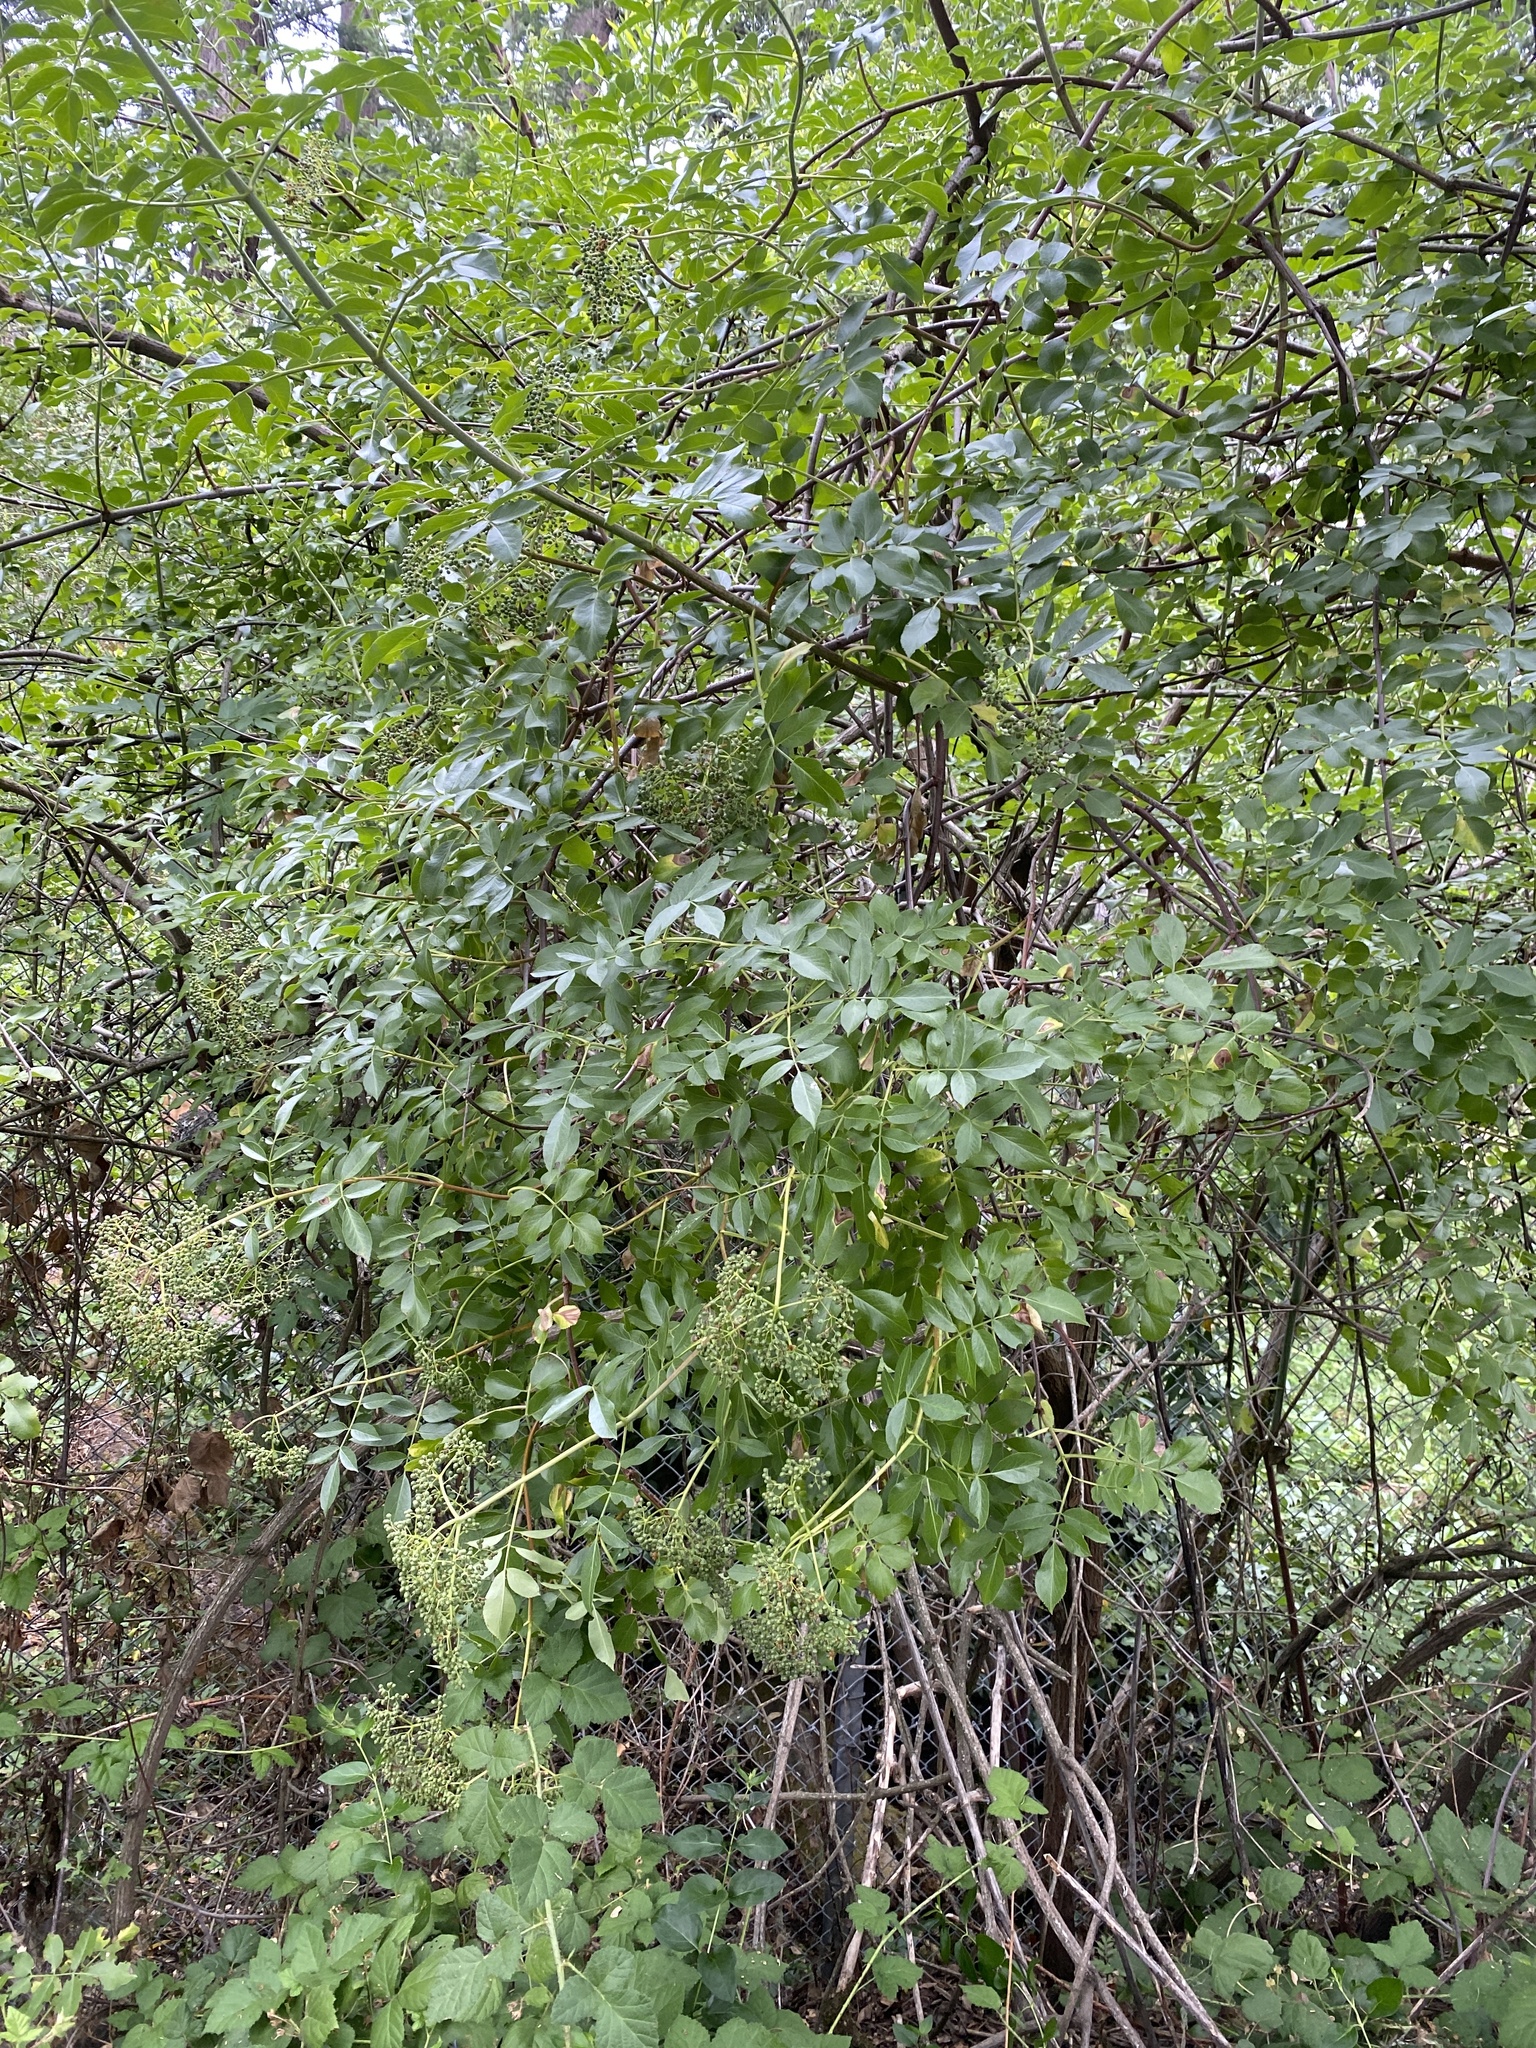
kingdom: Plantae
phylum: Tracheophyta
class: Magnoliopsida
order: Dipsacales
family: Viburnaceae
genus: Sambucus
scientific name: Sambucus cerulea
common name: Blue elder
